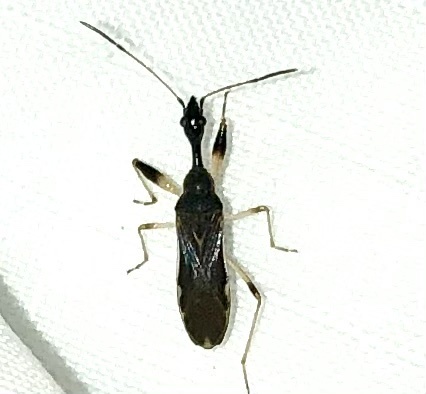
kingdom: Animalia
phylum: Arthropoda
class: Insecta
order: Hemiptera
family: Rhyparochromidae
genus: Myodocha
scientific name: Myodocha serripes
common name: Long-necked seed bug
